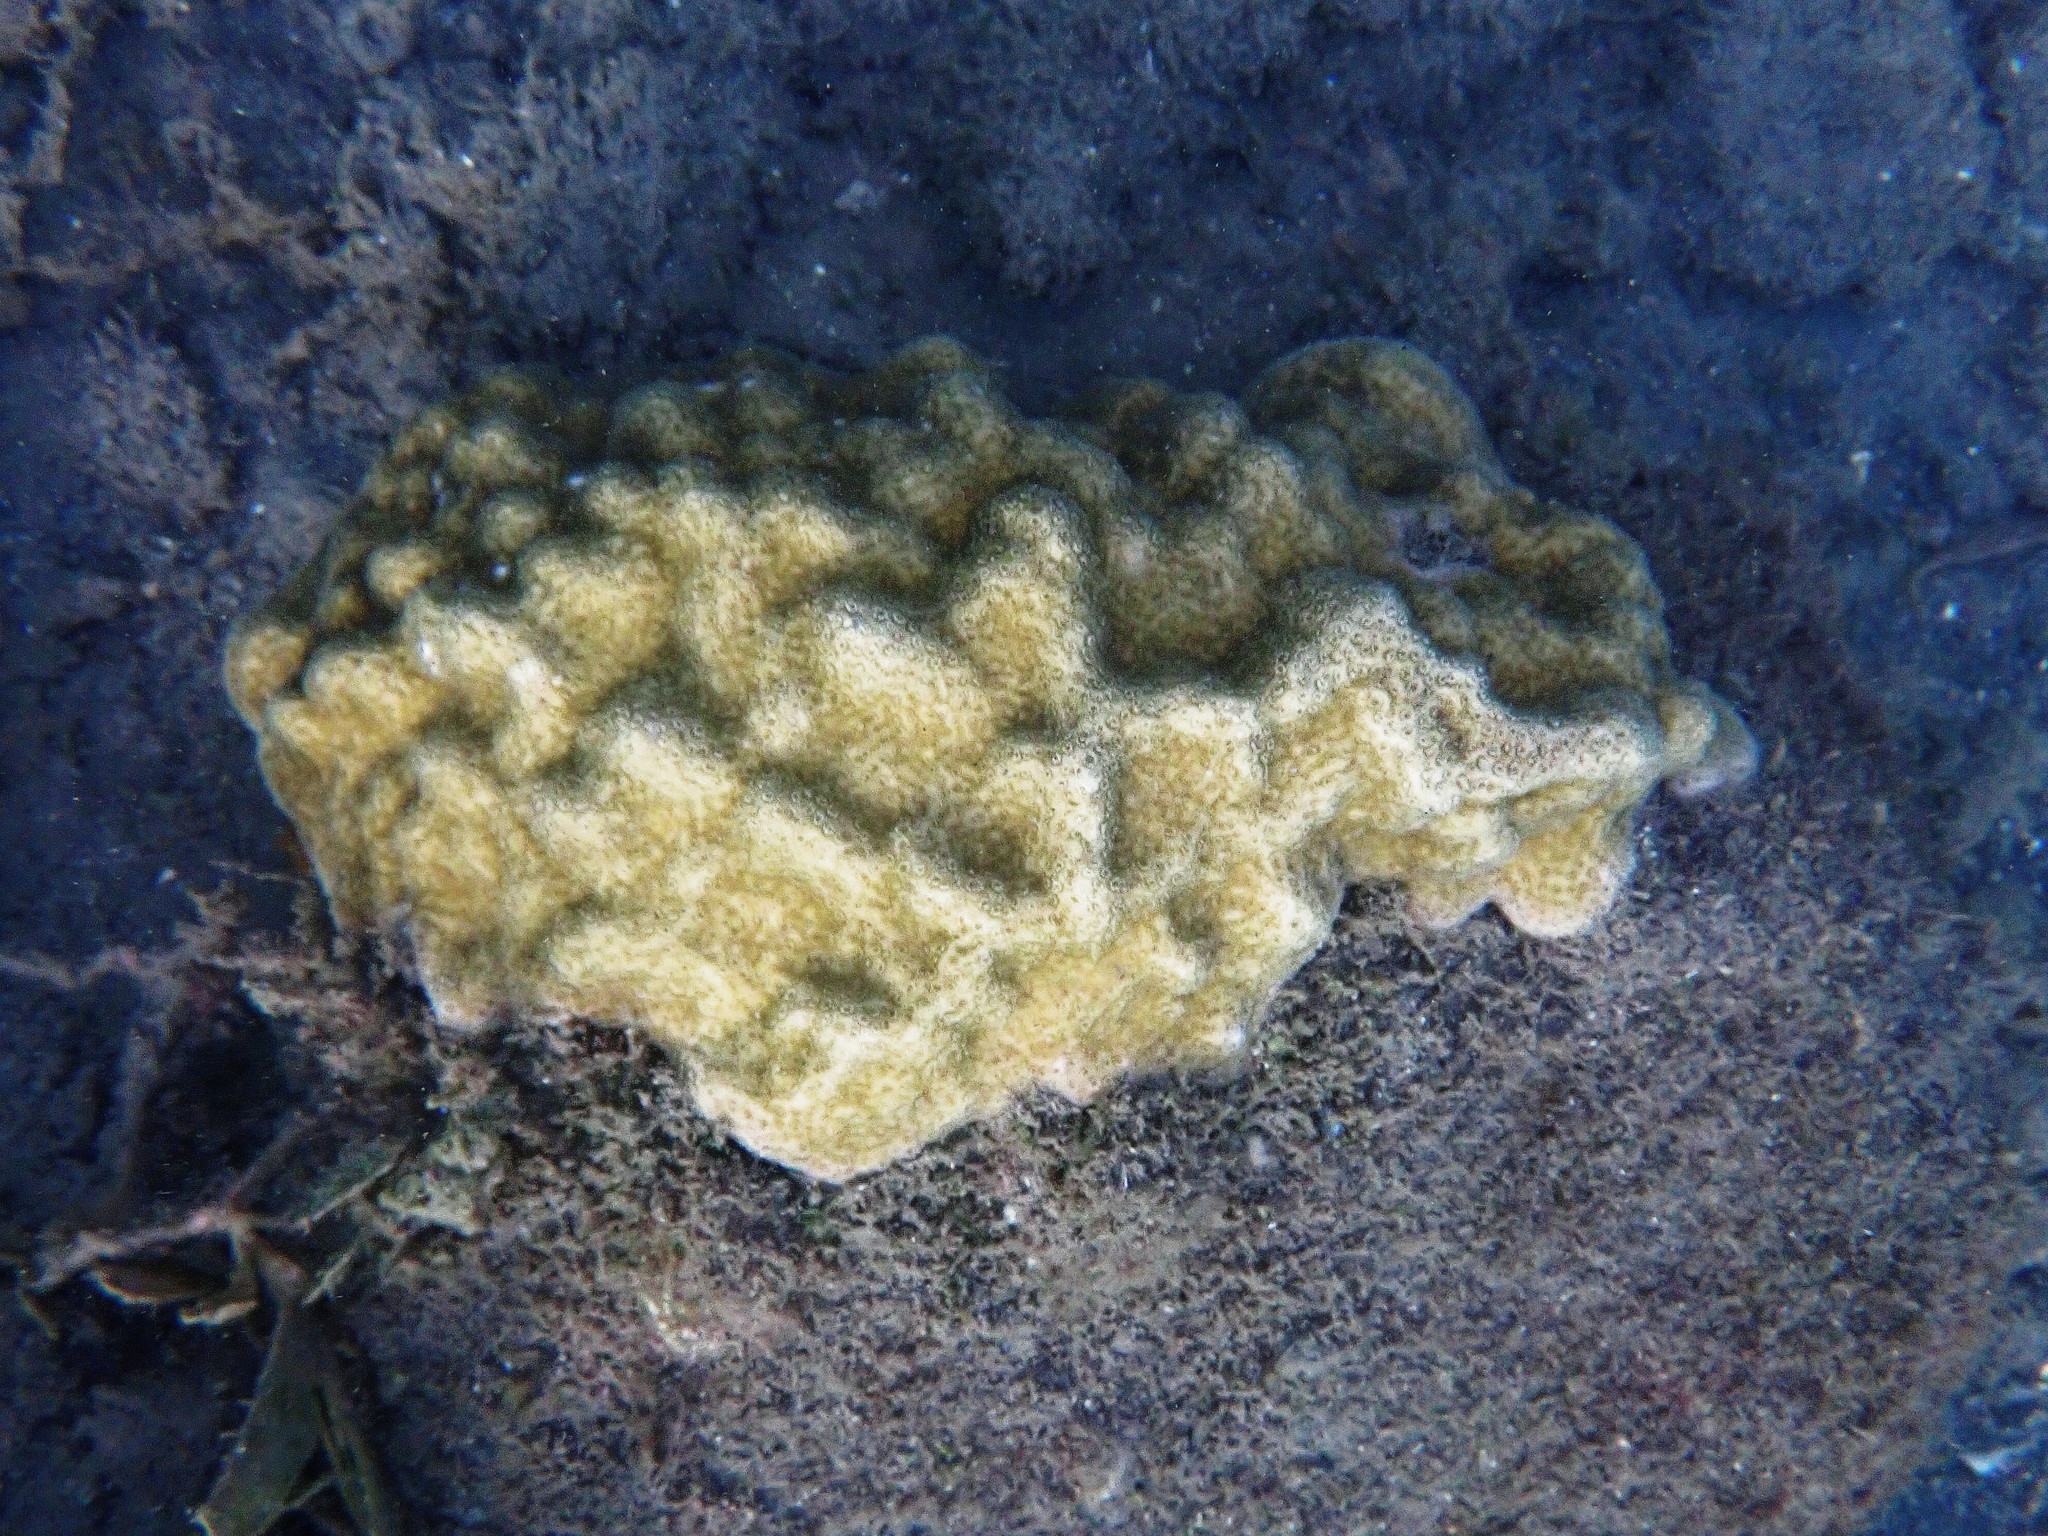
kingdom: Animalia
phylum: Cnidaria
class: Anthozoa
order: Scleractinia
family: Poritidae
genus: Porites
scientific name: Porites astreoides
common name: Mustard hill coral
